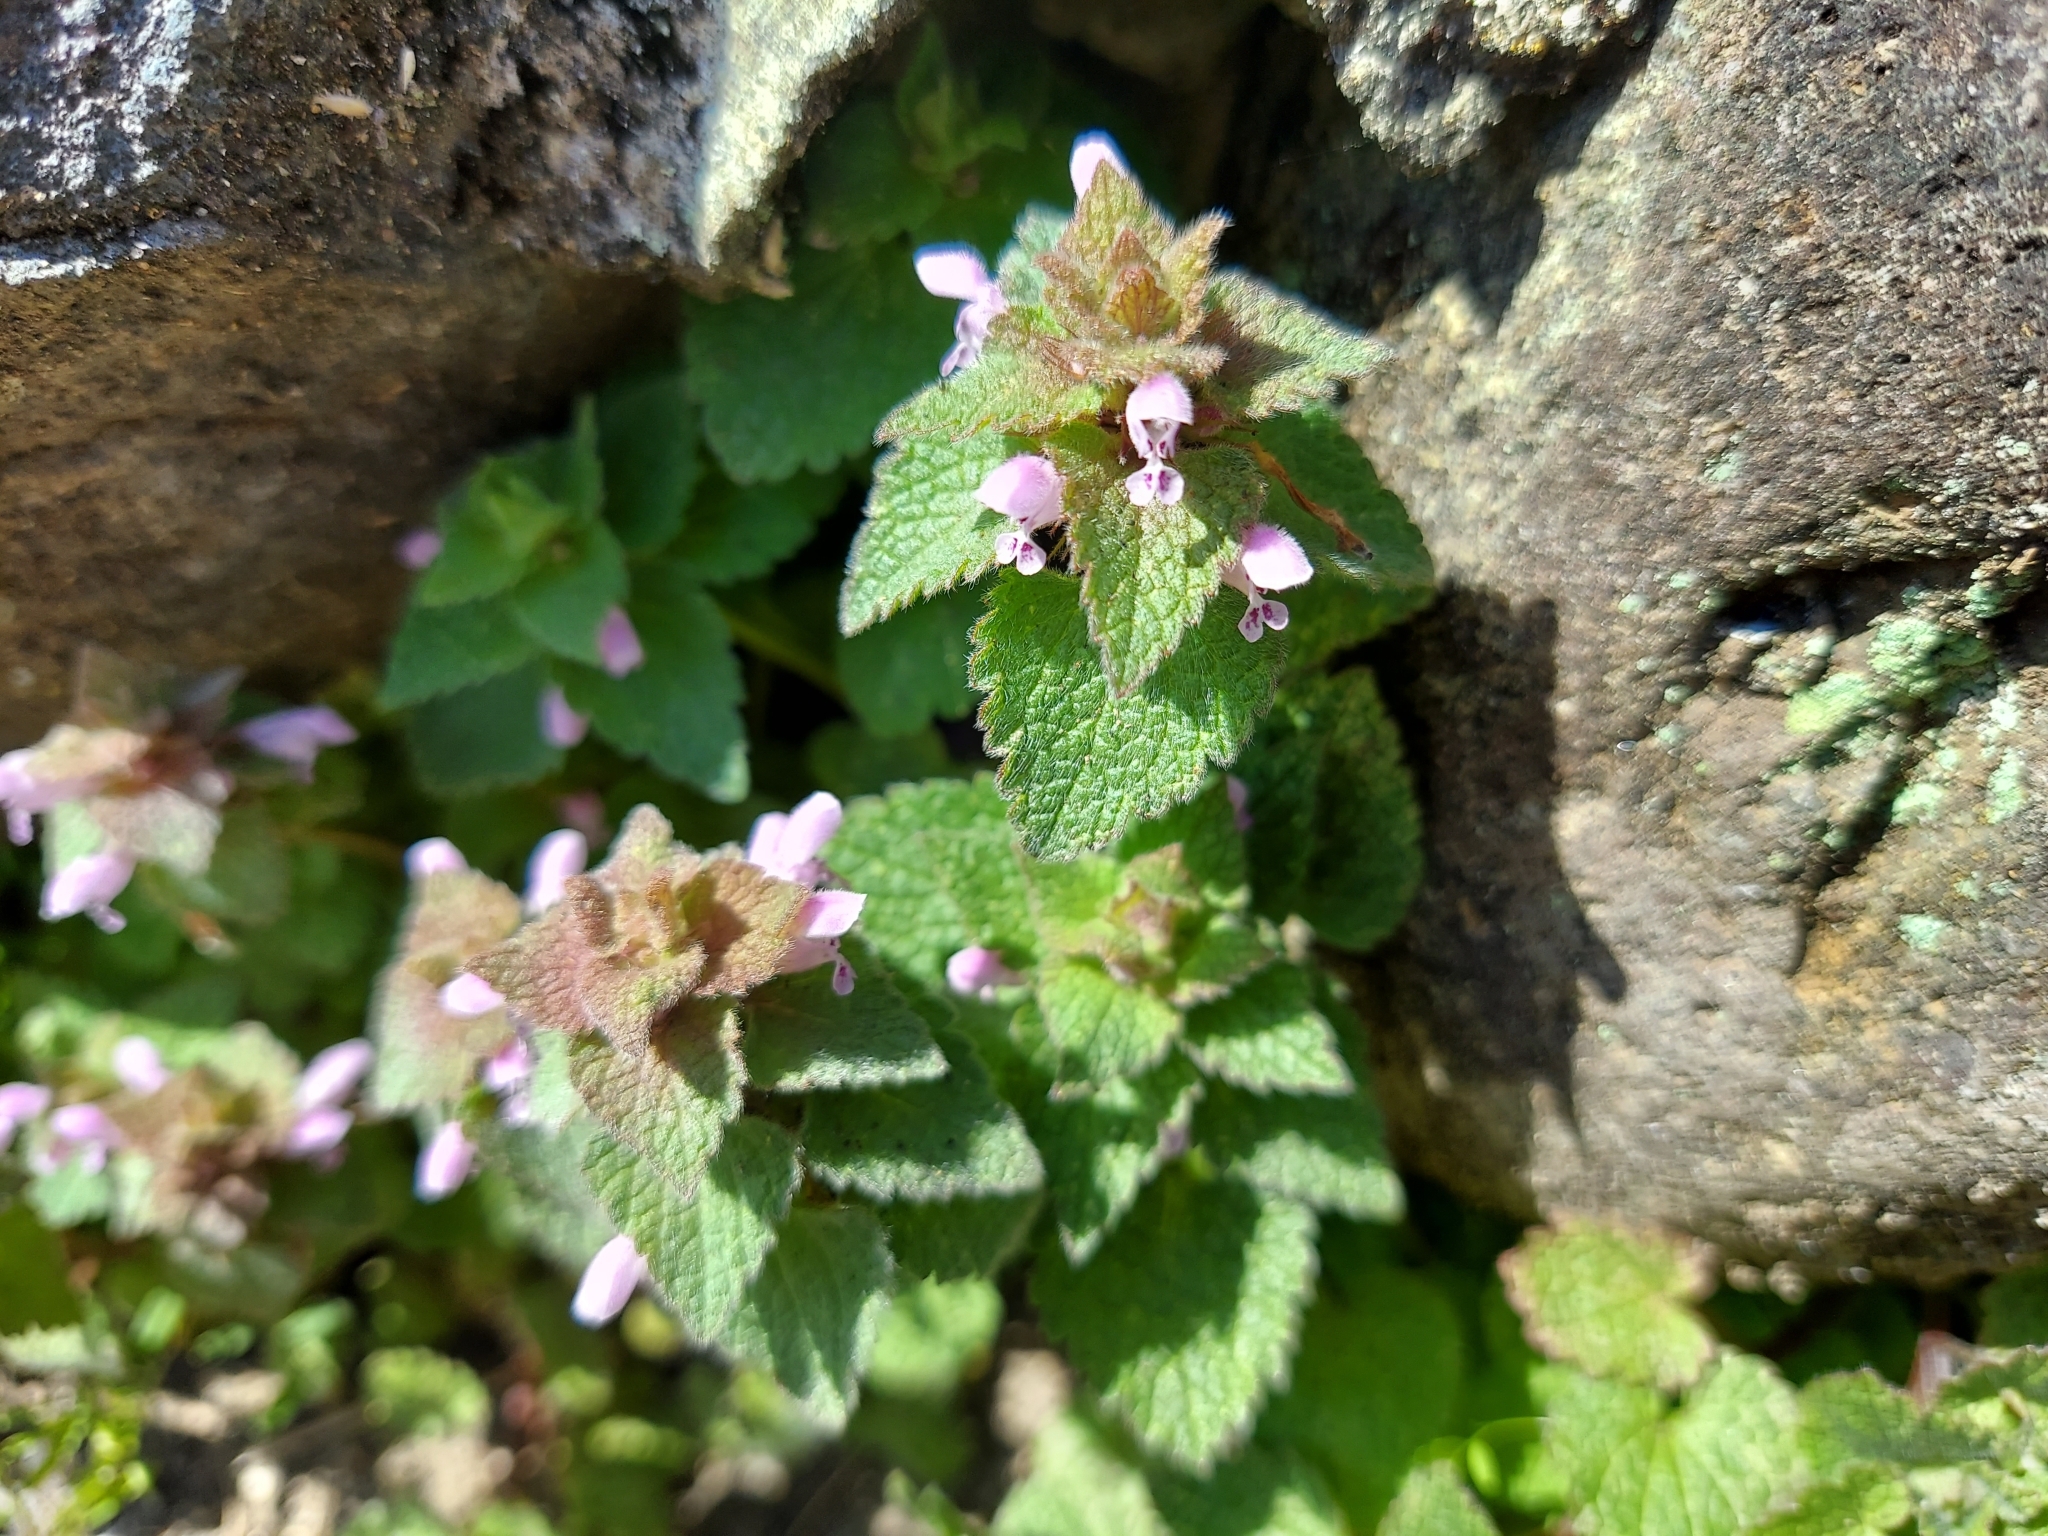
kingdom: Plantae
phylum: Tracheophyta
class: Magnoliopsida
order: Lamiales
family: Lamiaceae
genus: Lamium
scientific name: Lamium purpureum
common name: Red dead-nettle
